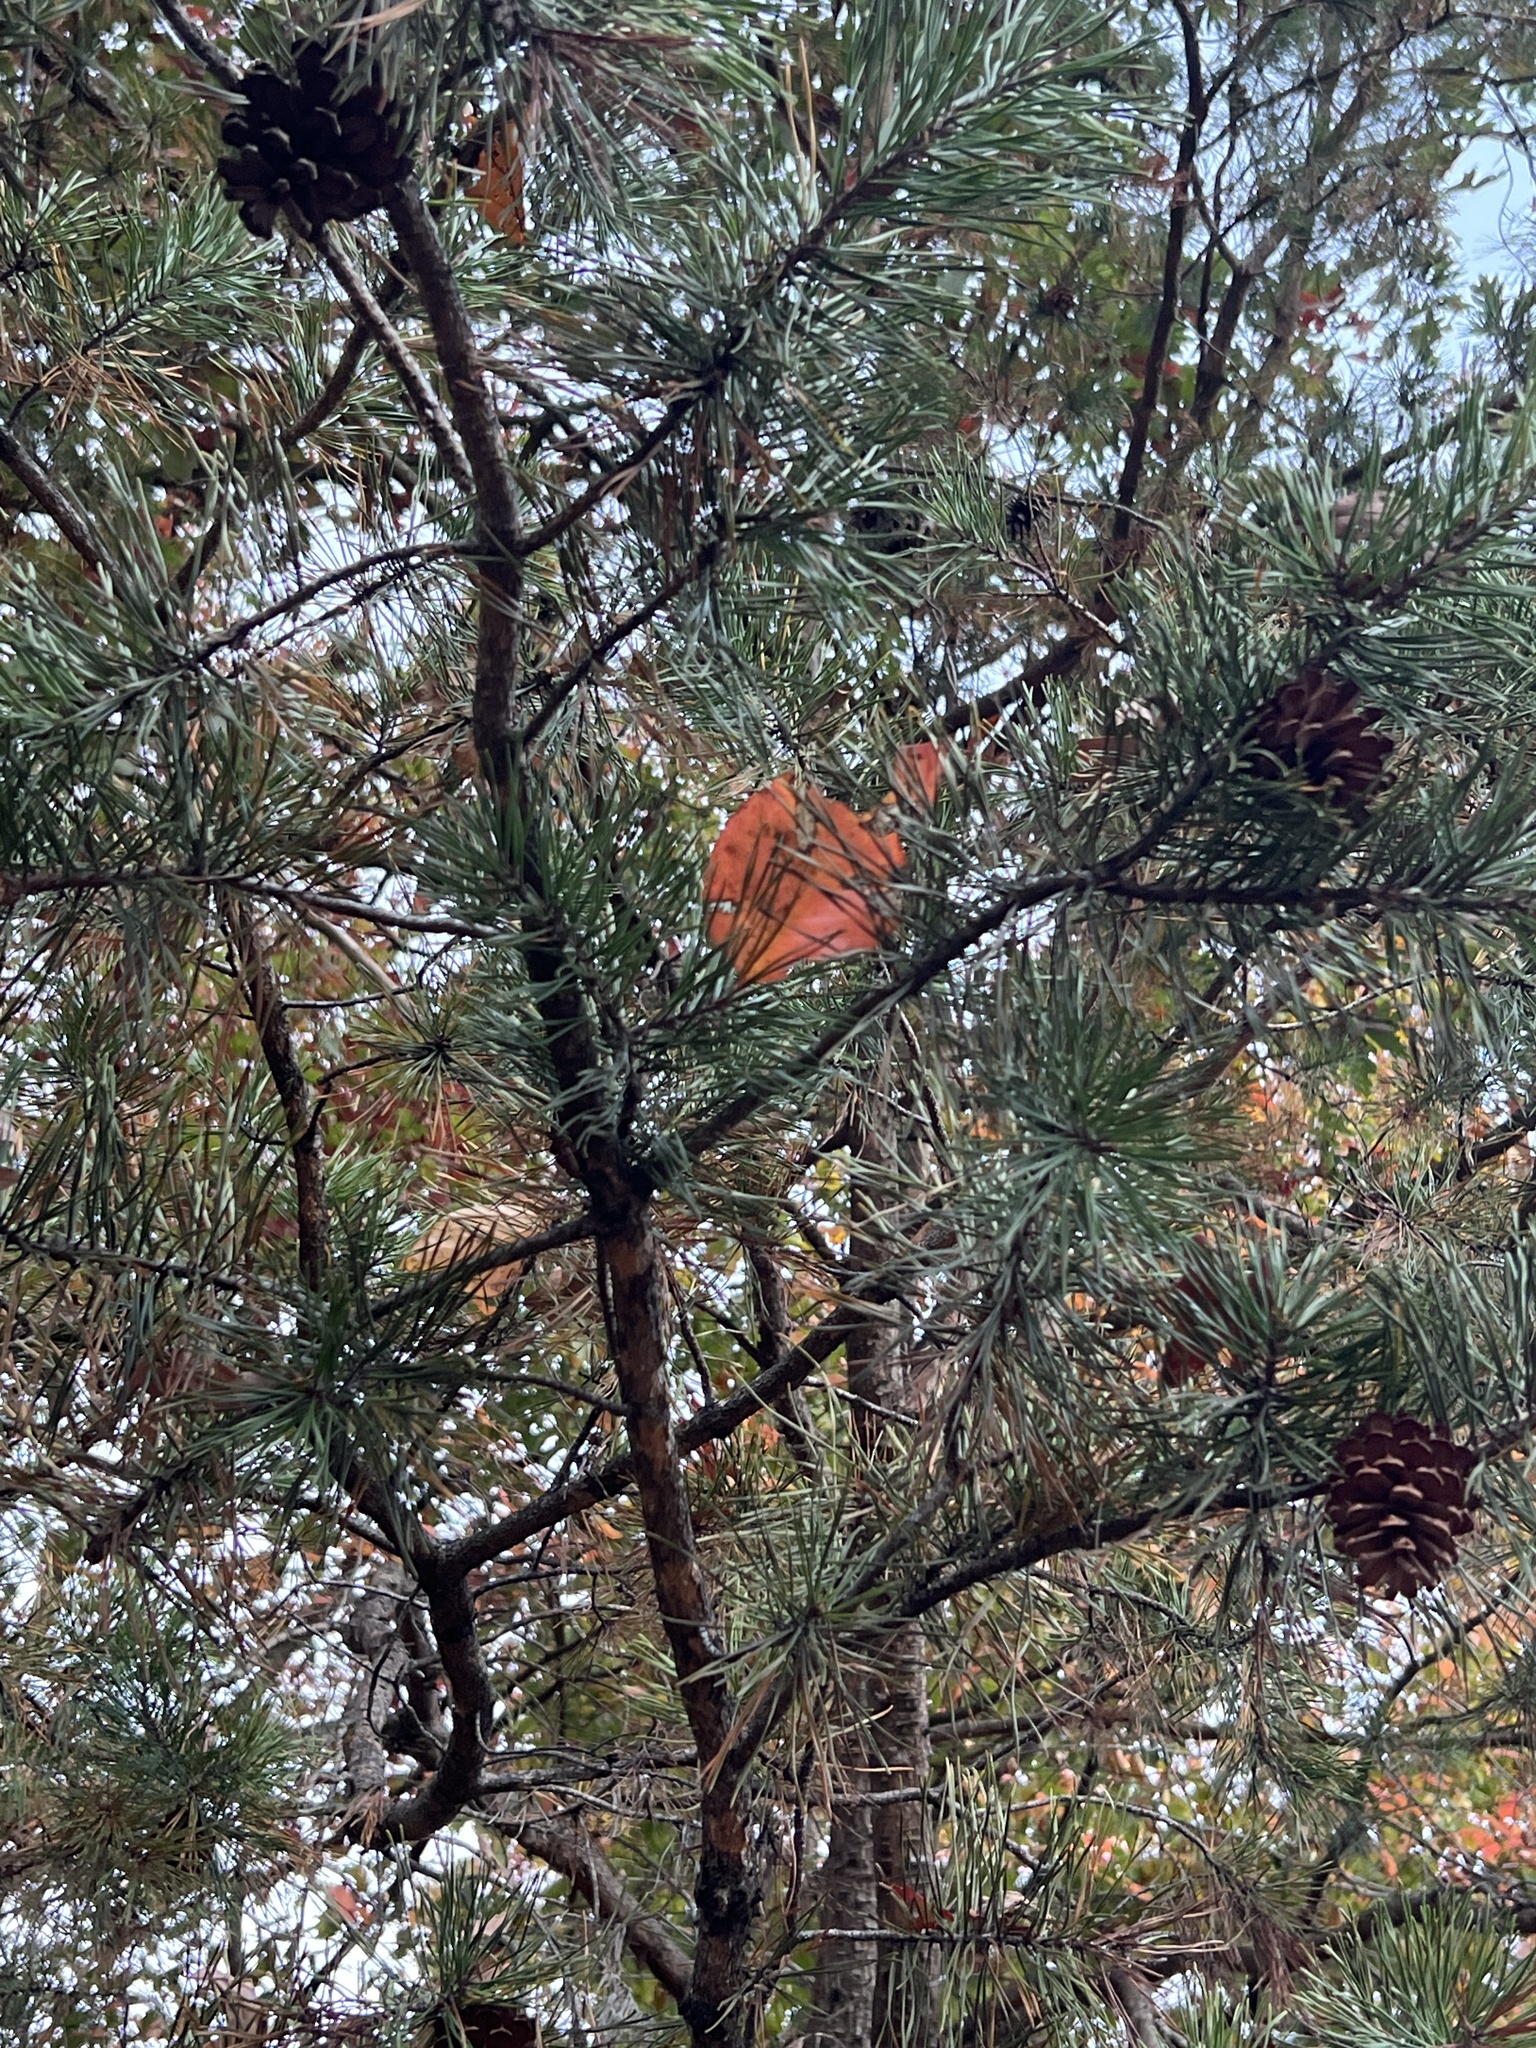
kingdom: Plantae
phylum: Tracheophyta
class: Pinopsida
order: Pinales
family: Pinaceae
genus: Pinus
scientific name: Pinus virginiana
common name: Scrub pine
